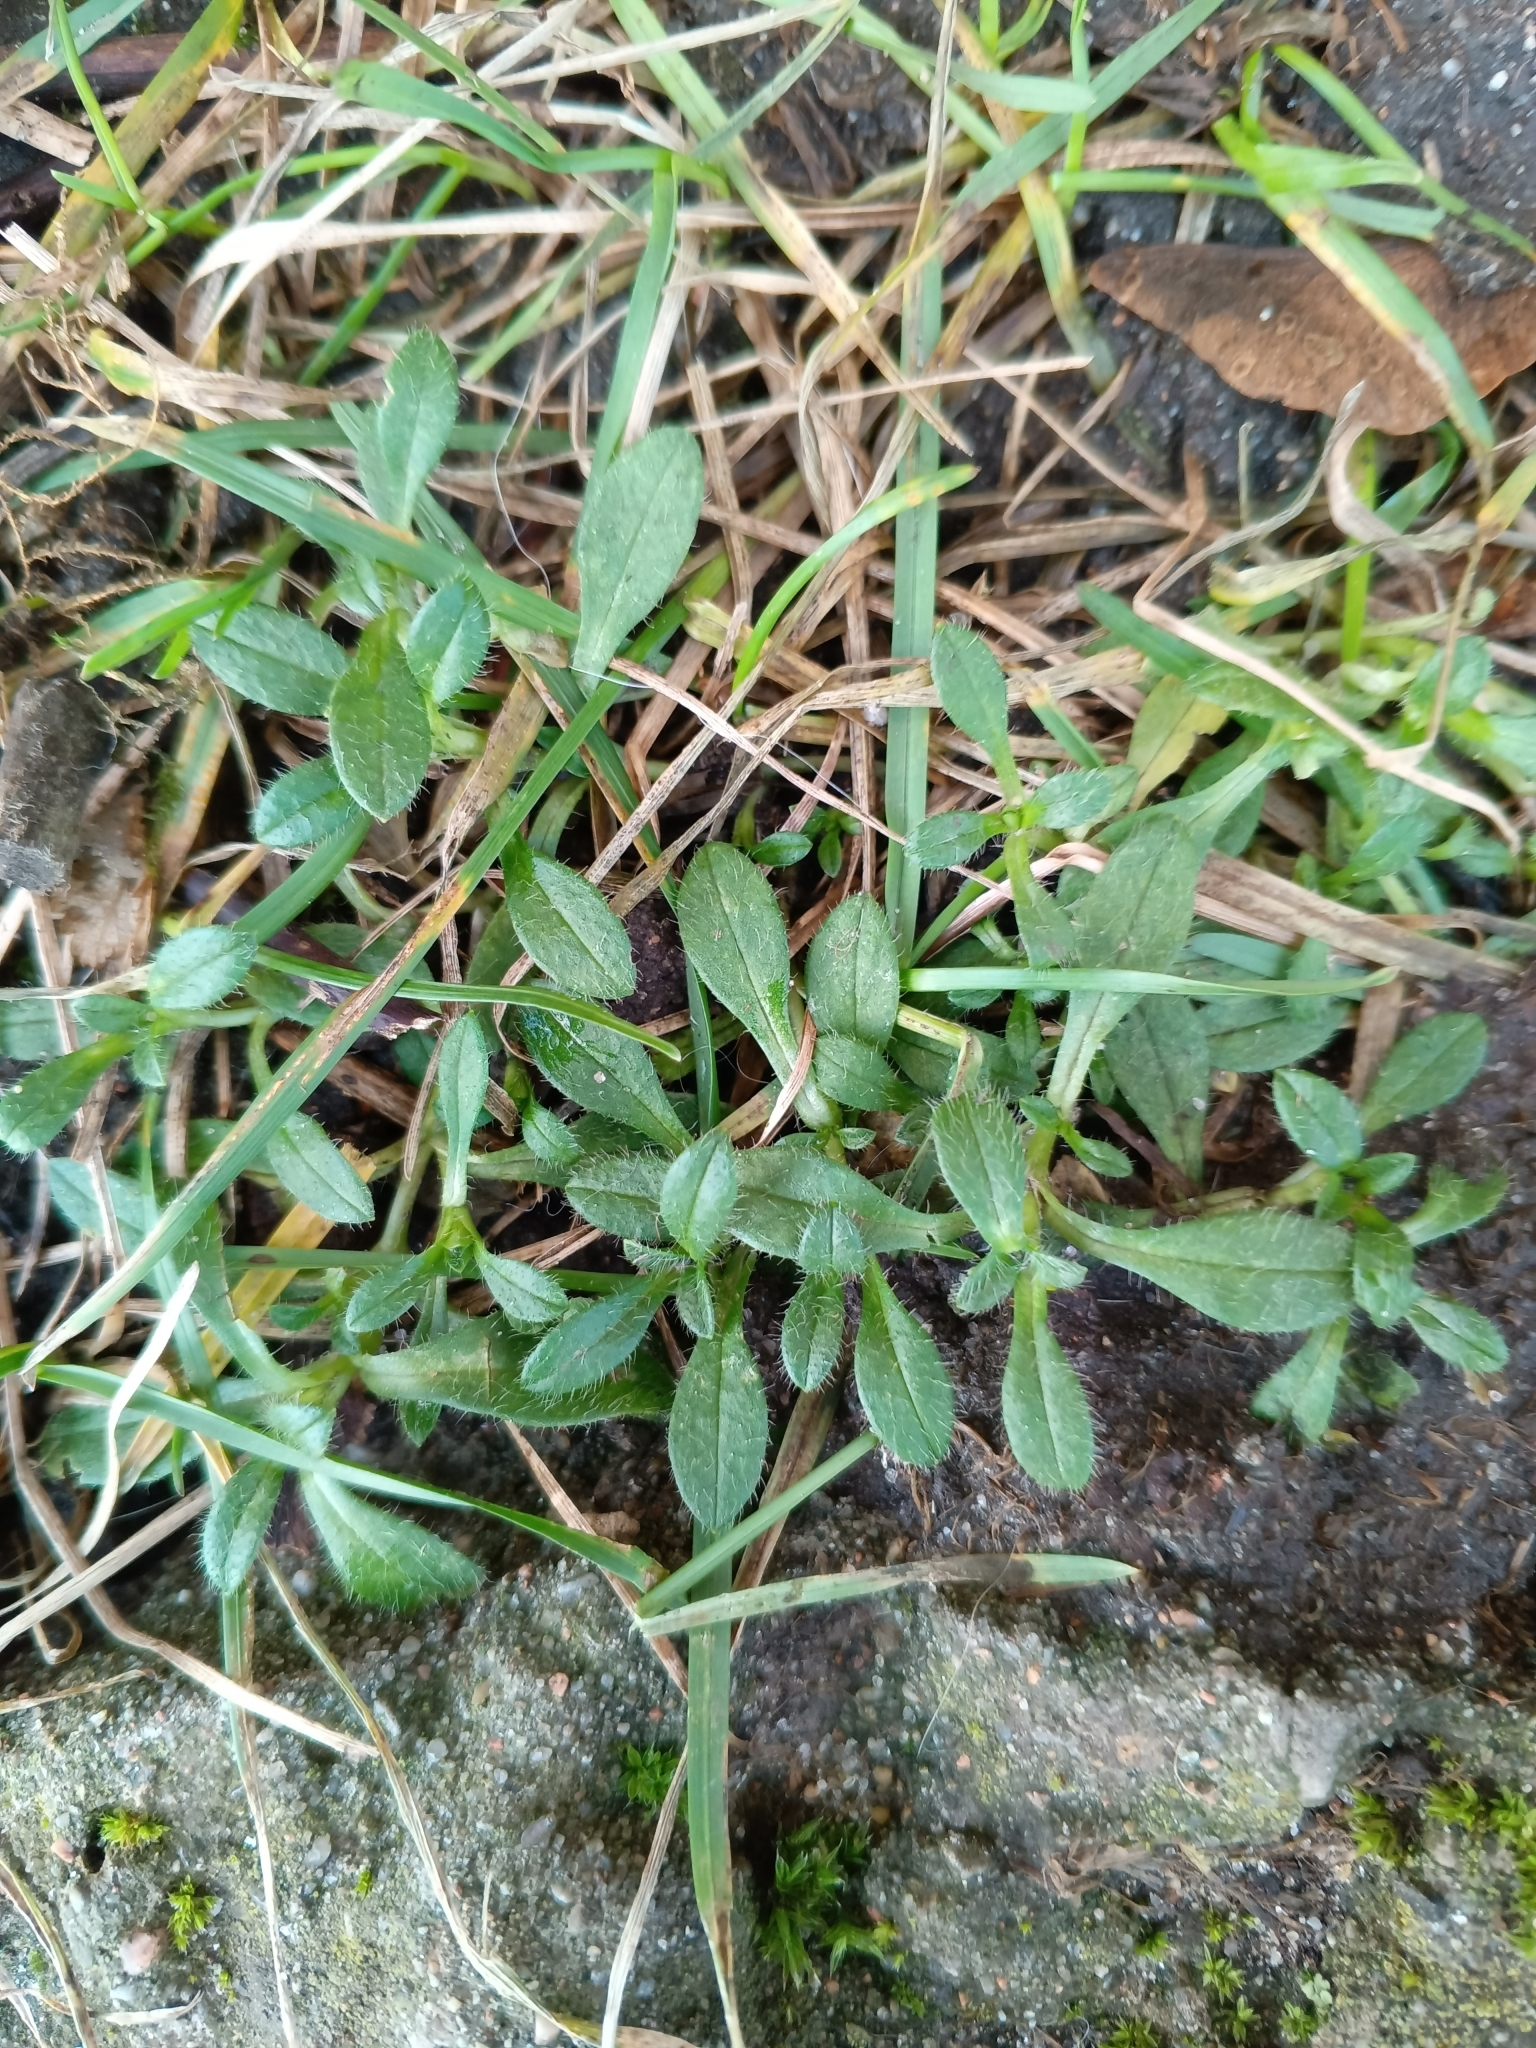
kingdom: Plantae
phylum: Tracheophyta
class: Magnoliopsida
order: Caryophyllales
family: Caryophyllaceae
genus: Cerastium
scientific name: Cerastium holosteoides
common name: Big chickweed
